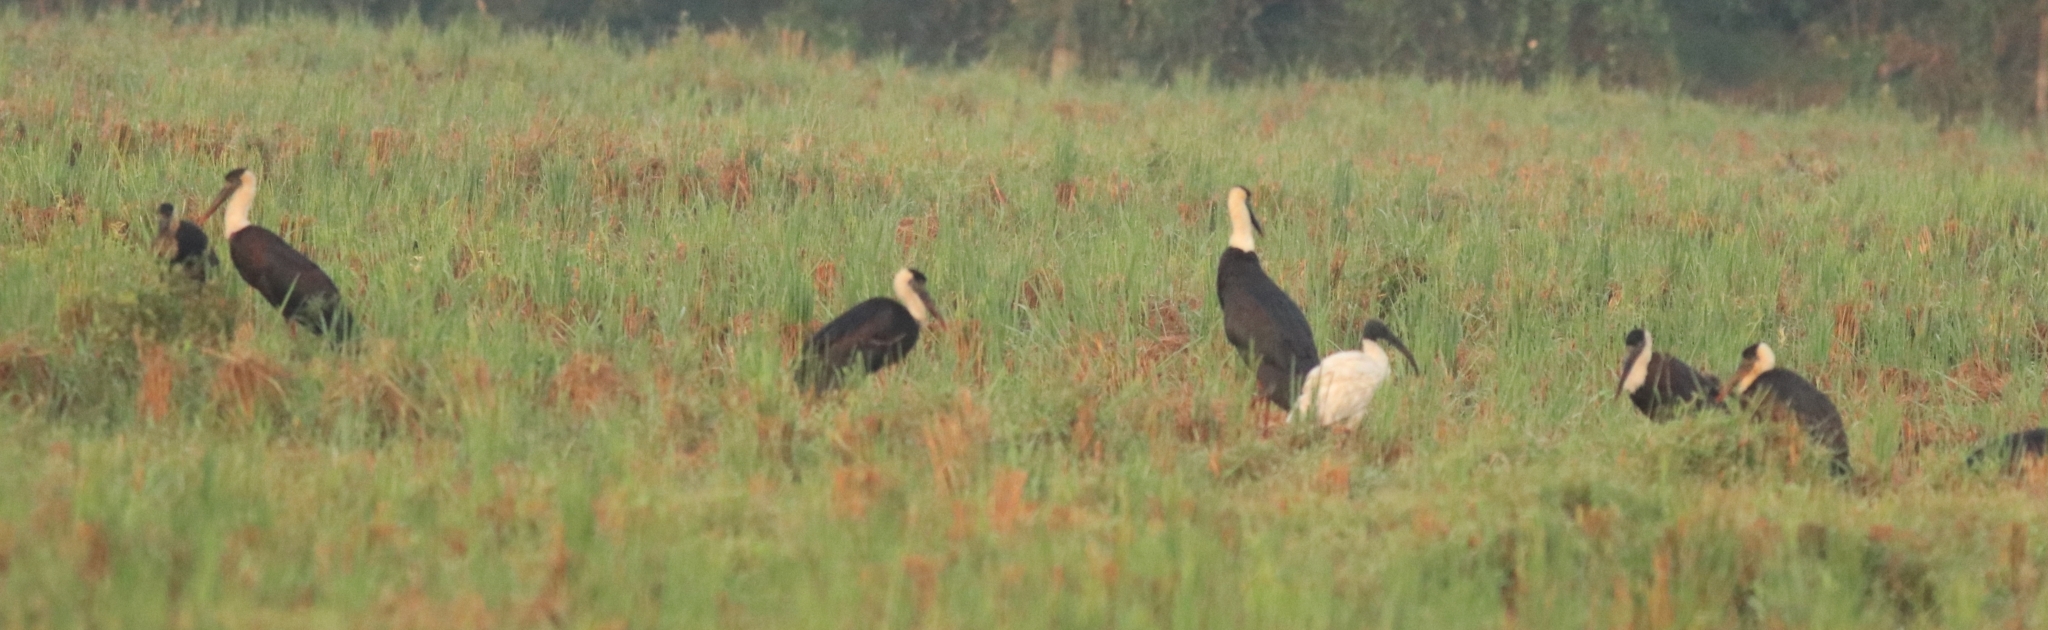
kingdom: Animalia
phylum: Chordata
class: Aves
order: Ciconiiformes
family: Ciconiidae
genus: Ciconia
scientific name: Ciconia episcopus
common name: Woolly-necked stork
